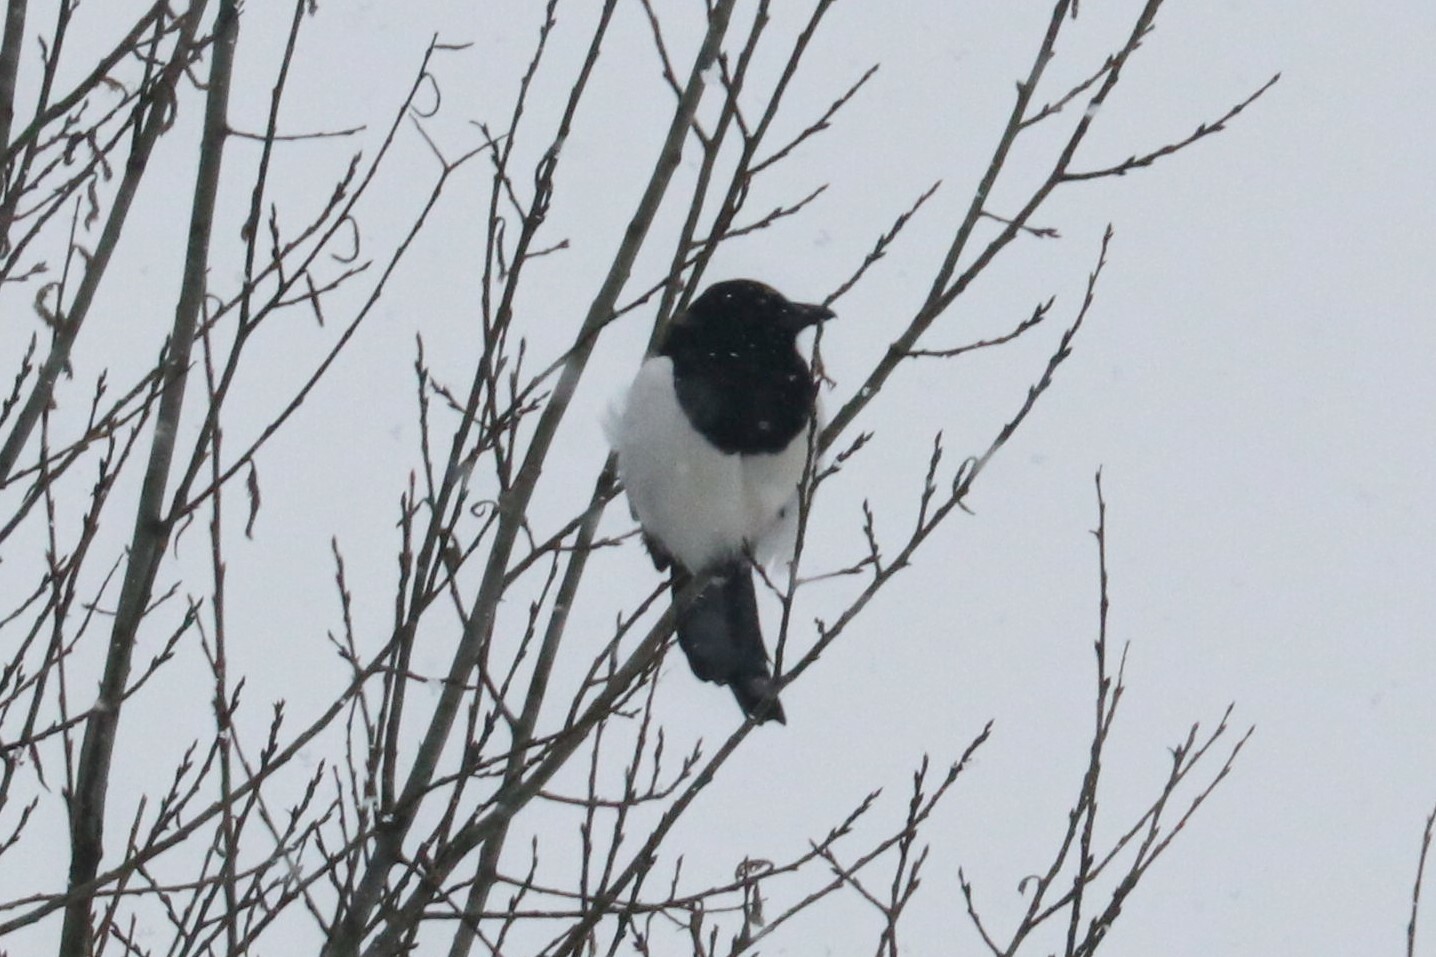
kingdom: Animalia
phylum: Chordata
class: Aves
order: Passeriformes
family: Corvidae
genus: Pica
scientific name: Pica pica
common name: Eurasian magpie
